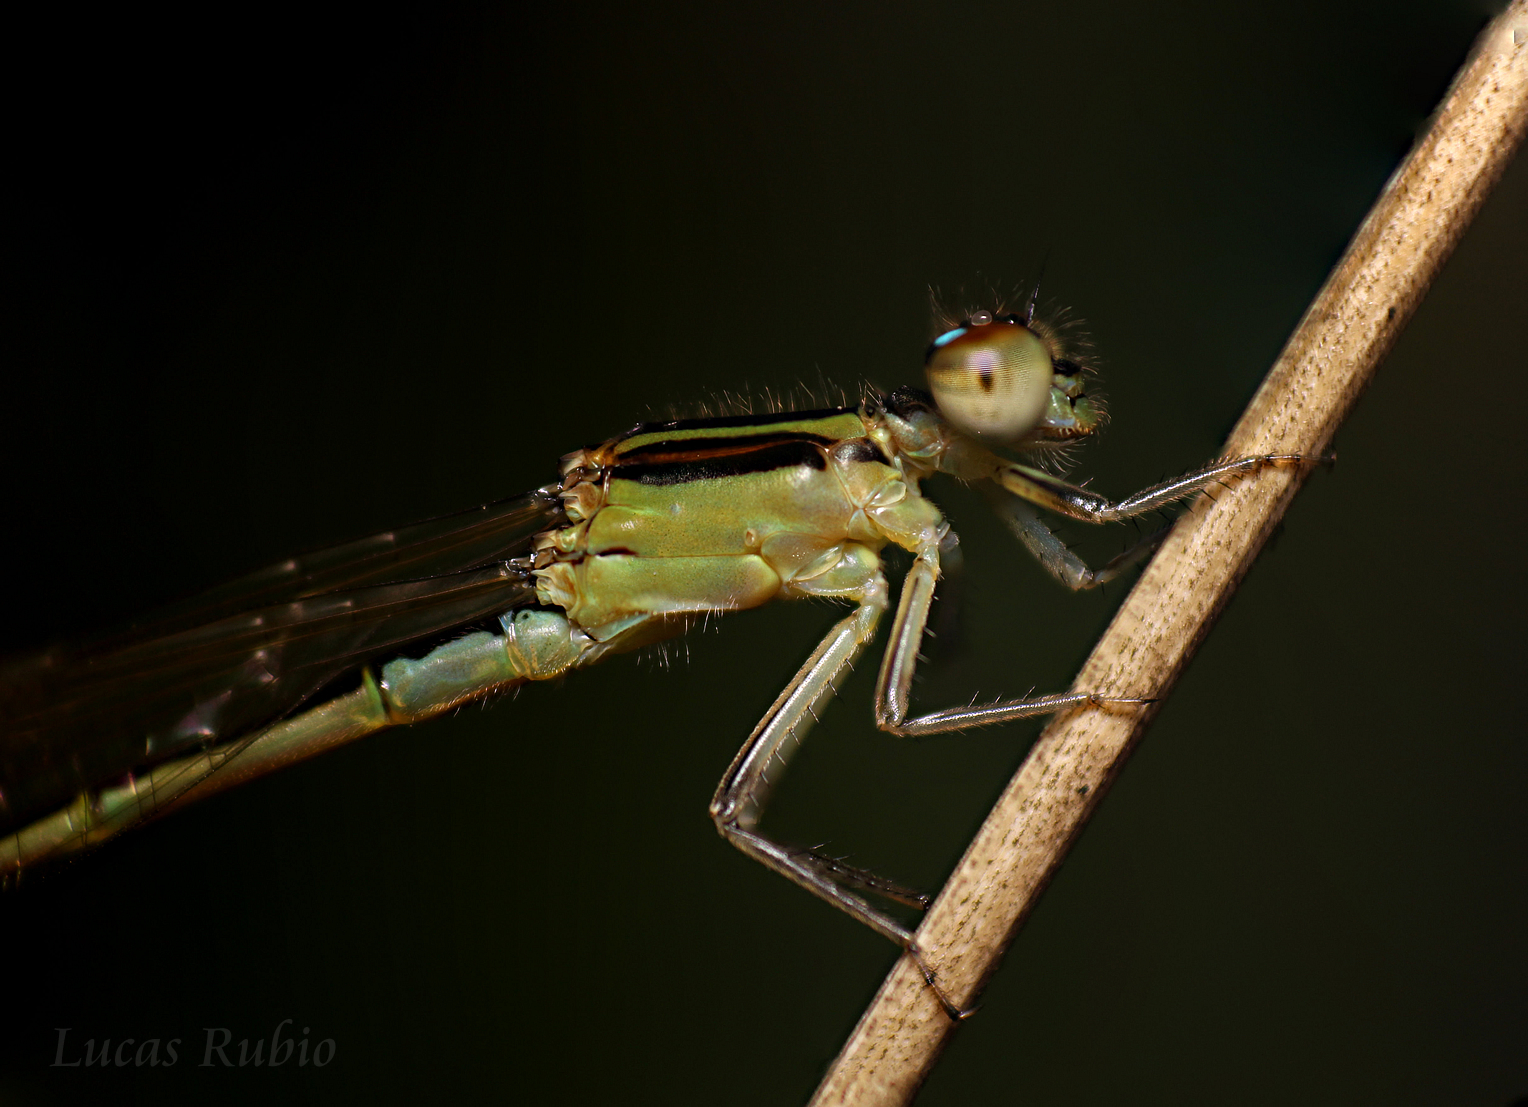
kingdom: Animalia
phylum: Arthropoda
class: Insecta
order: Odonata
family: Coenagrionidae
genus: Ischnura
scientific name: Ischnura fluviatilis
